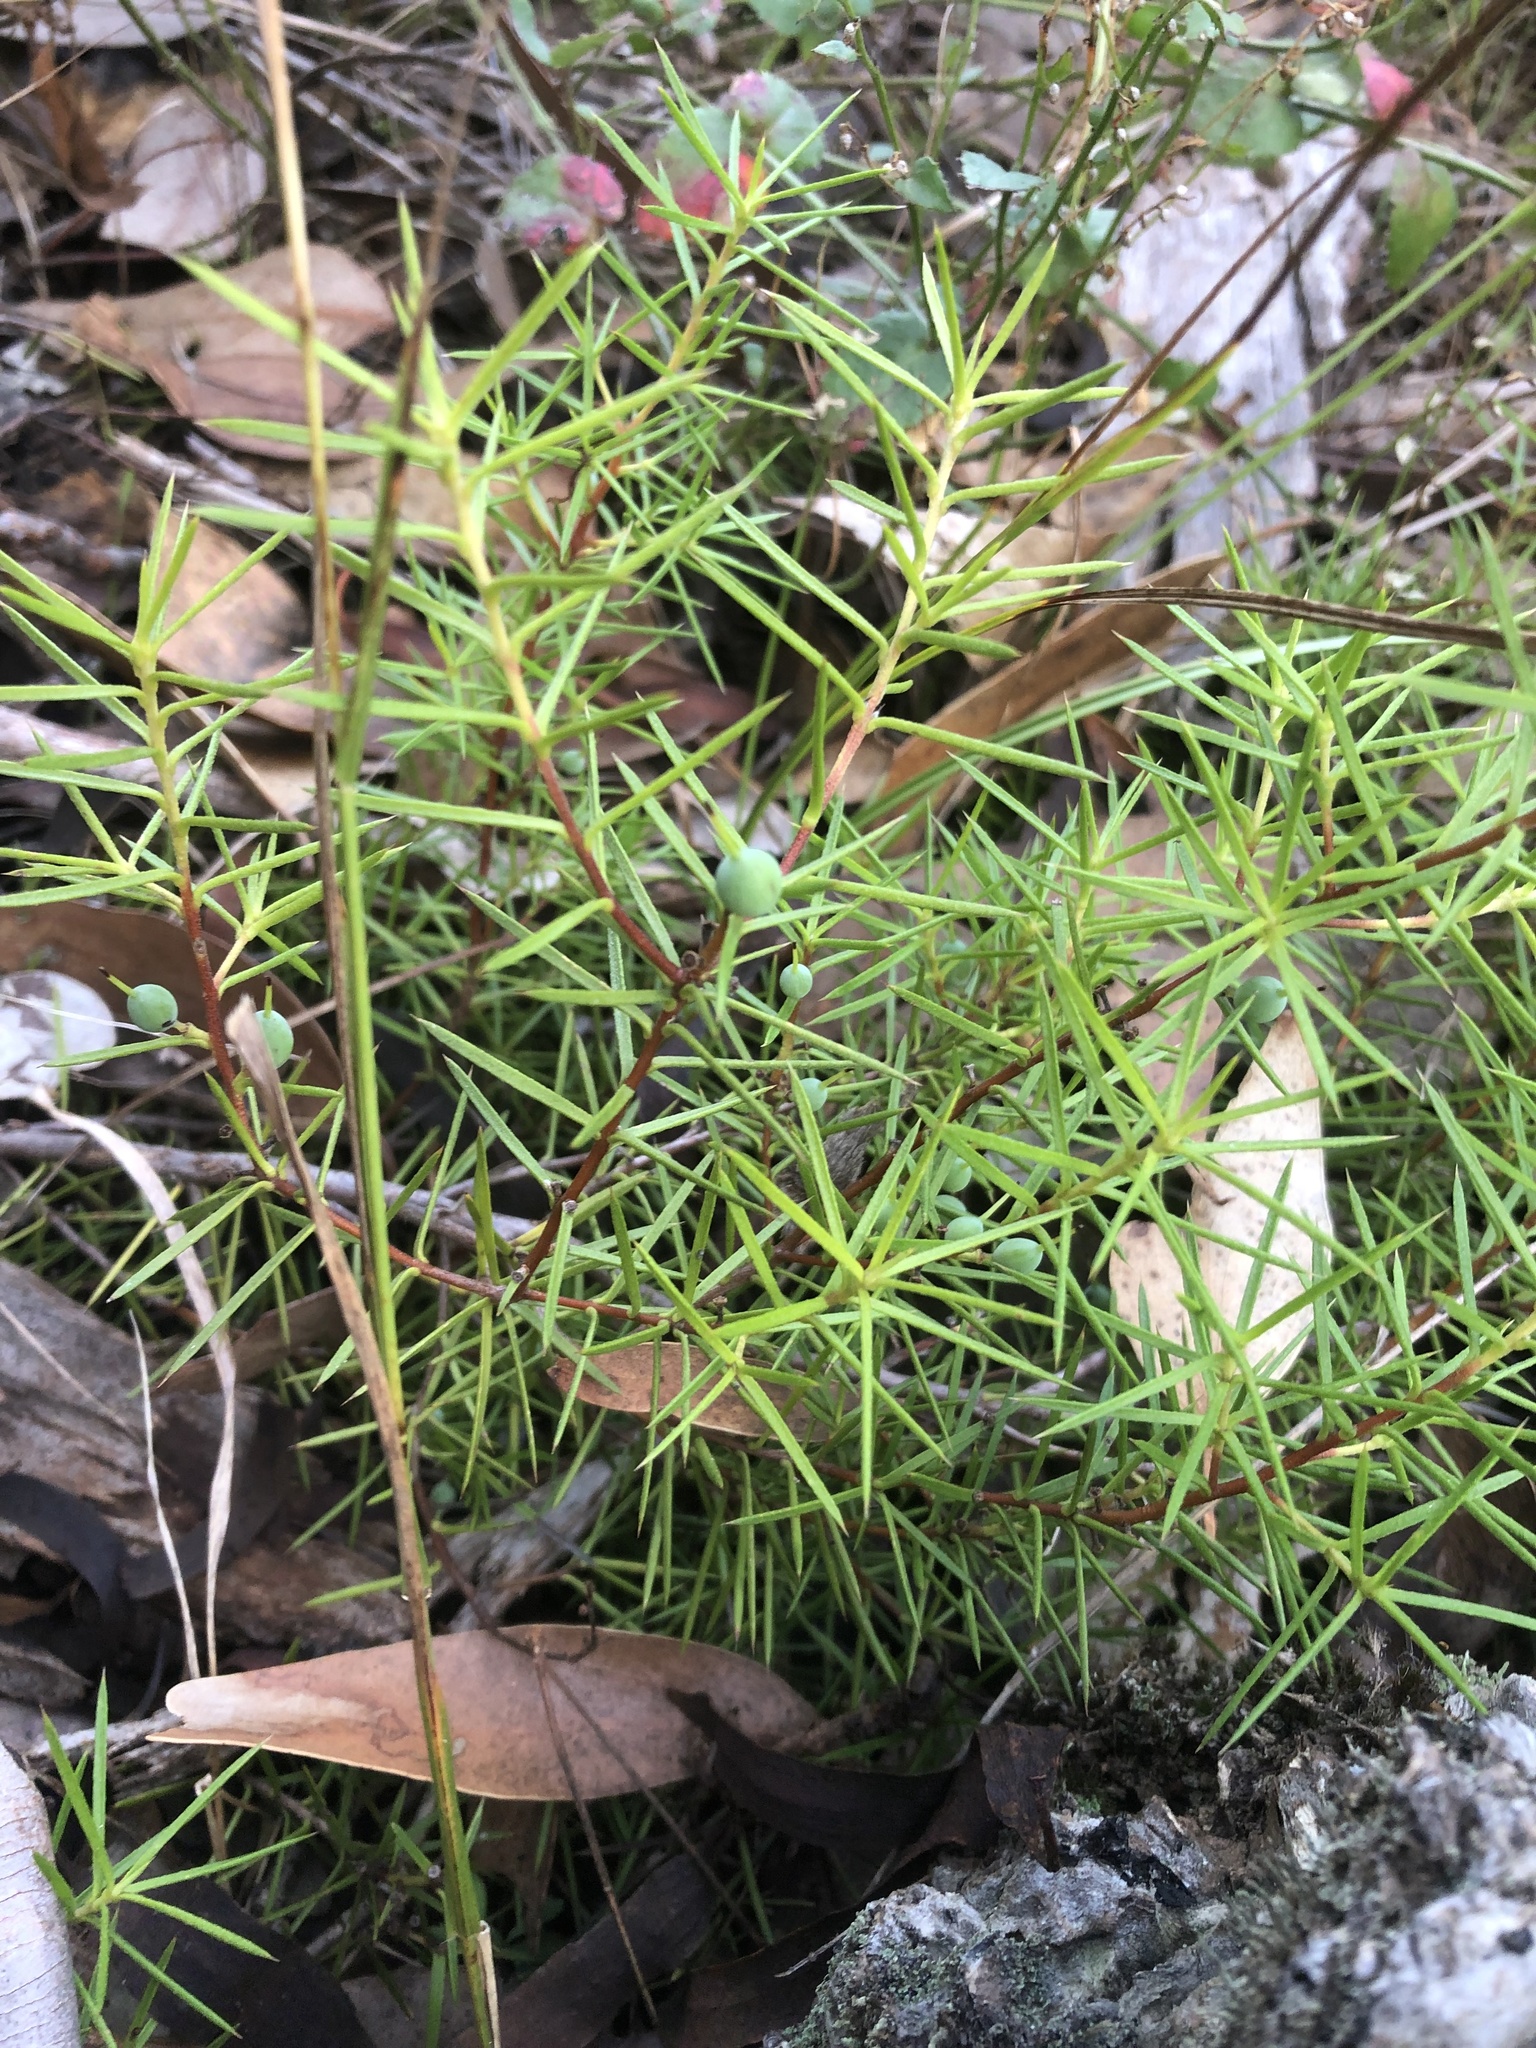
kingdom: Plantae
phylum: Tracheophyta
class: Magnoliopsida
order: Proteales
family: Proteaceae
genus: Persoonia
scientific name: Persoonia juniperina
